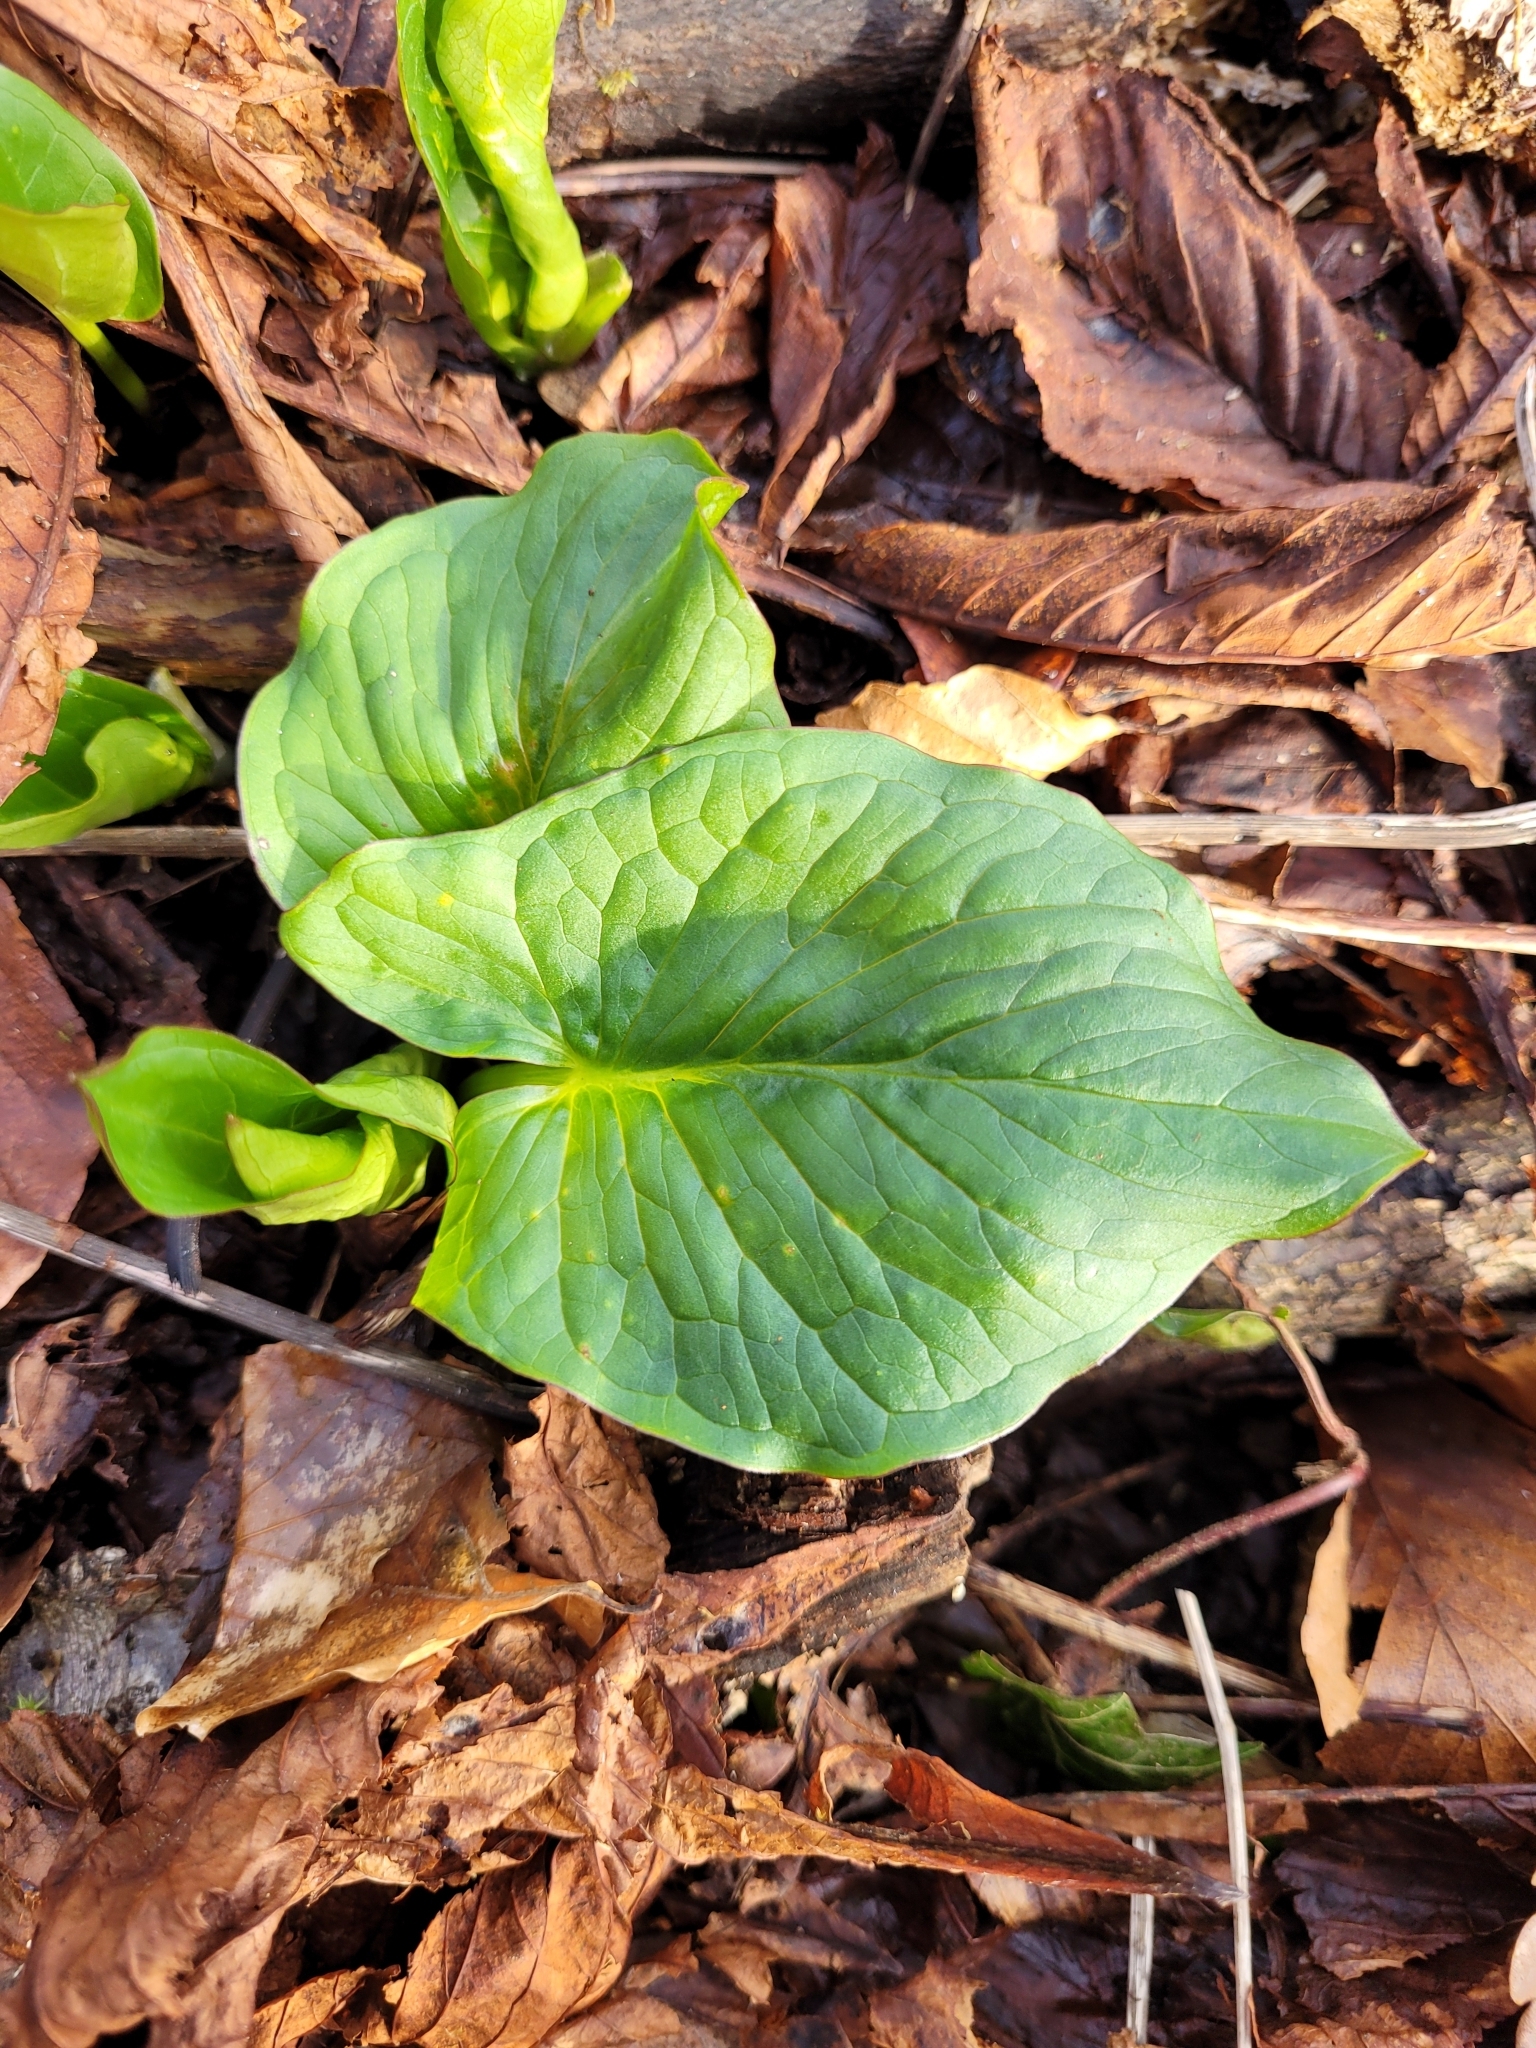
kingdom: Plantae
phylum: Tracheophyta
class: Liliopsida
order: Alismatales
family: Araceae
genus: Arum
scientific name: Arum maculatum
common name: Lords-and-ladies
